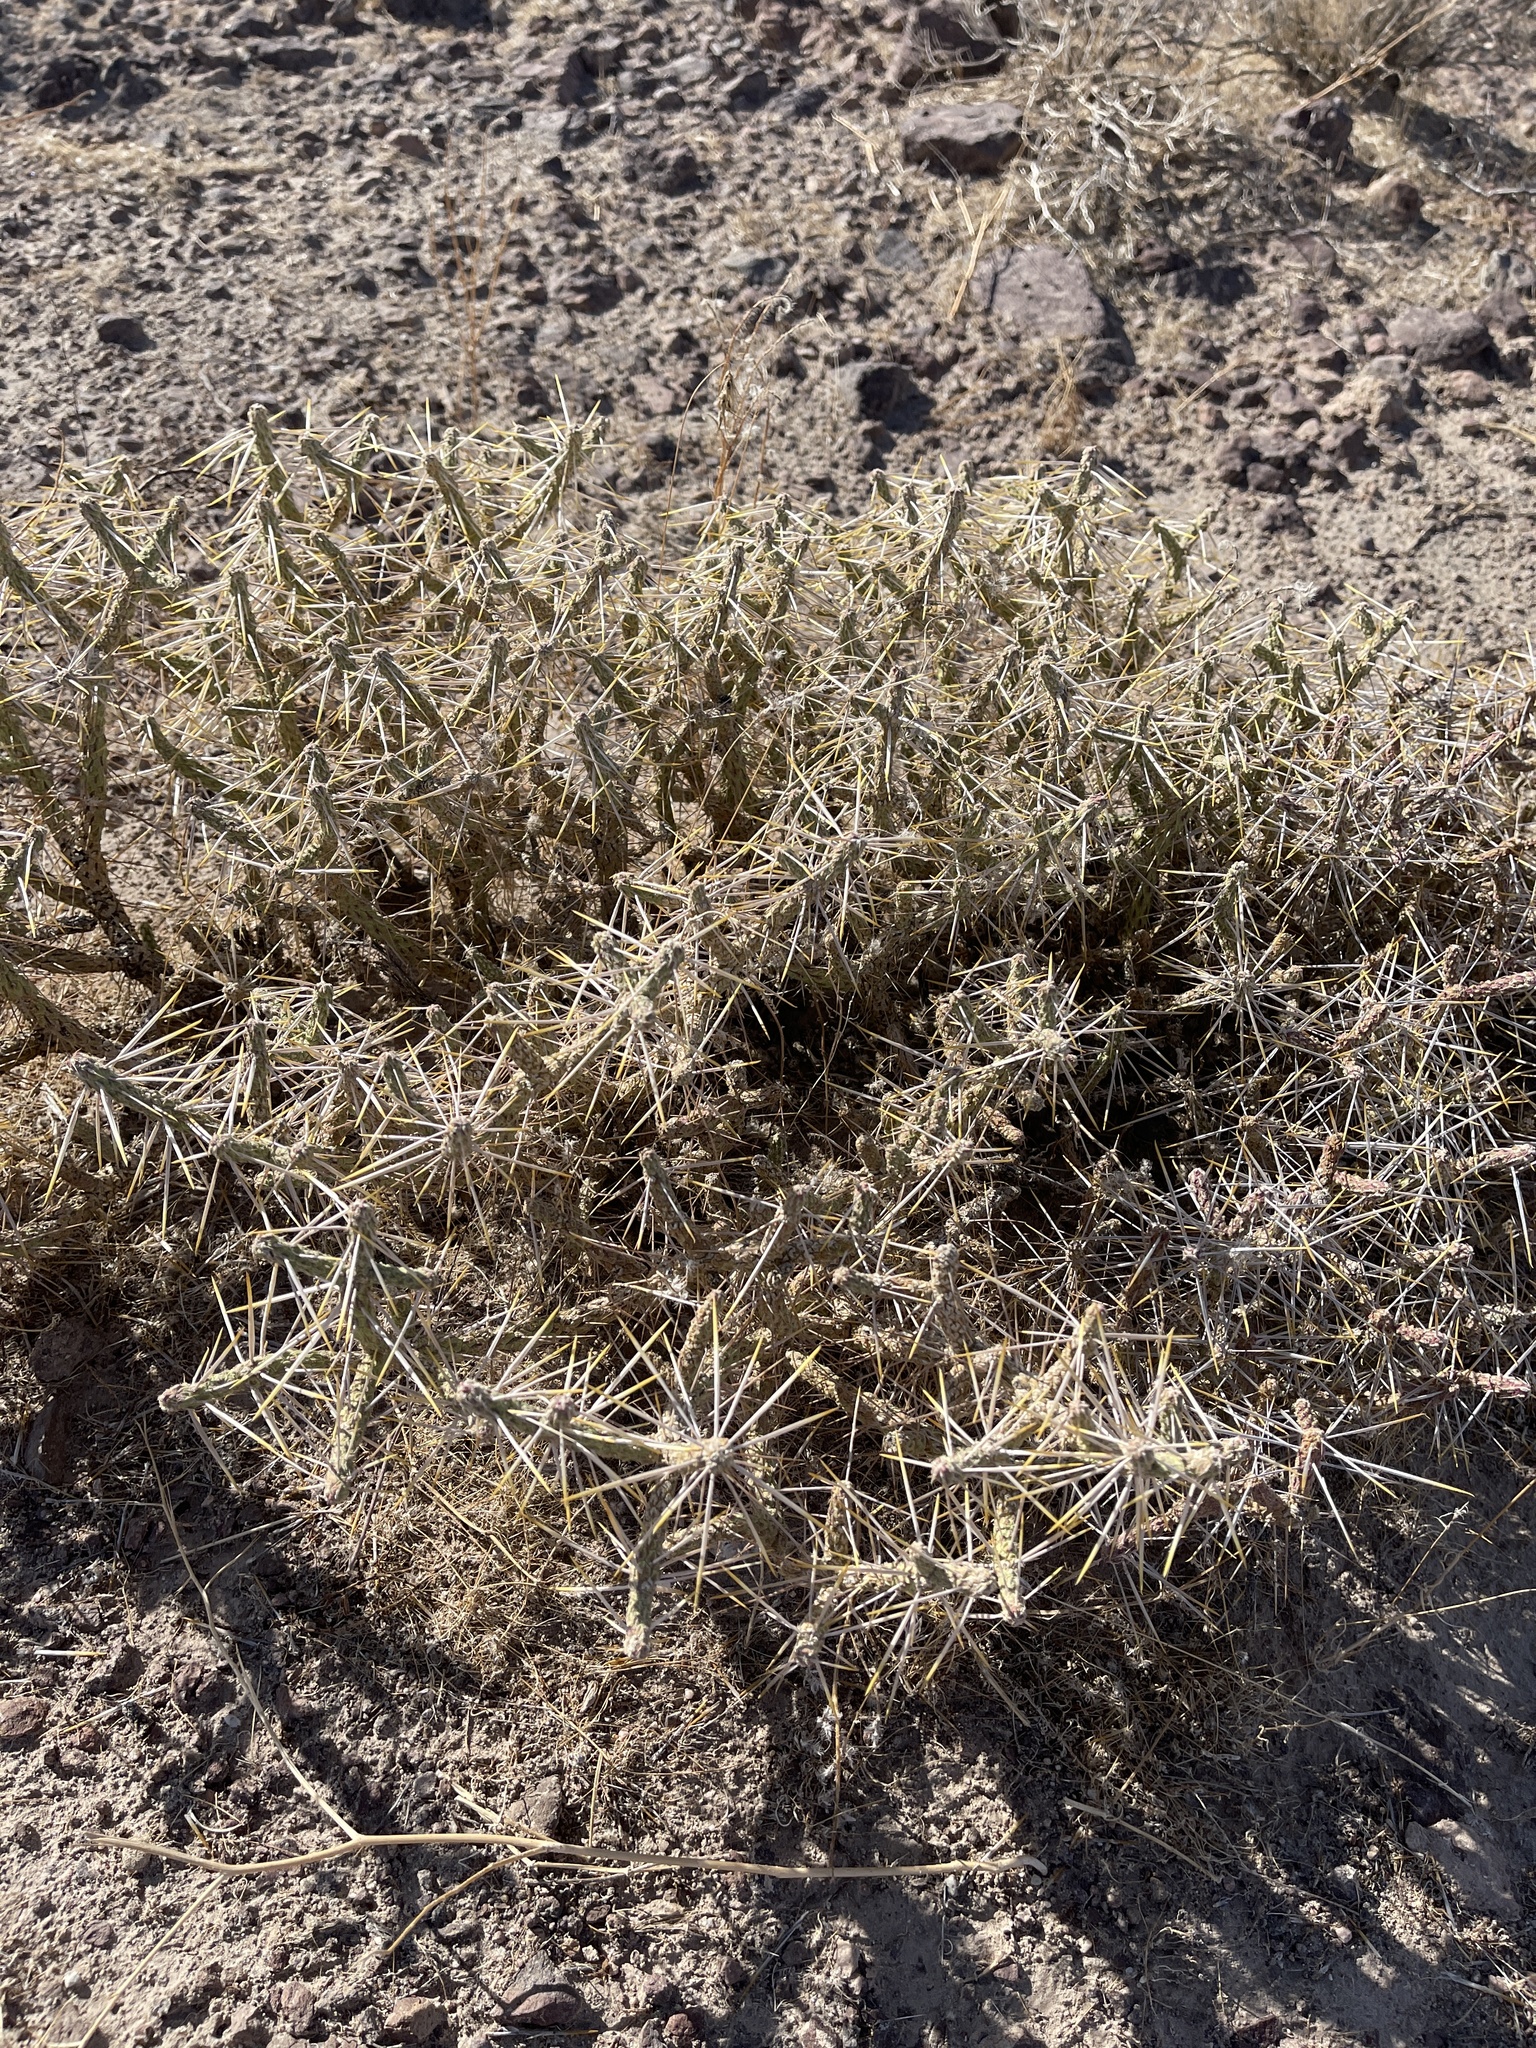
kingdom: Plantae
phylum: Tracheophyta
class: Magnoliopsida
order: Caryophyllales
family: Cactaceae
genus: Cylindropuntia
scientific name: Cylindropuntia ramosissima
